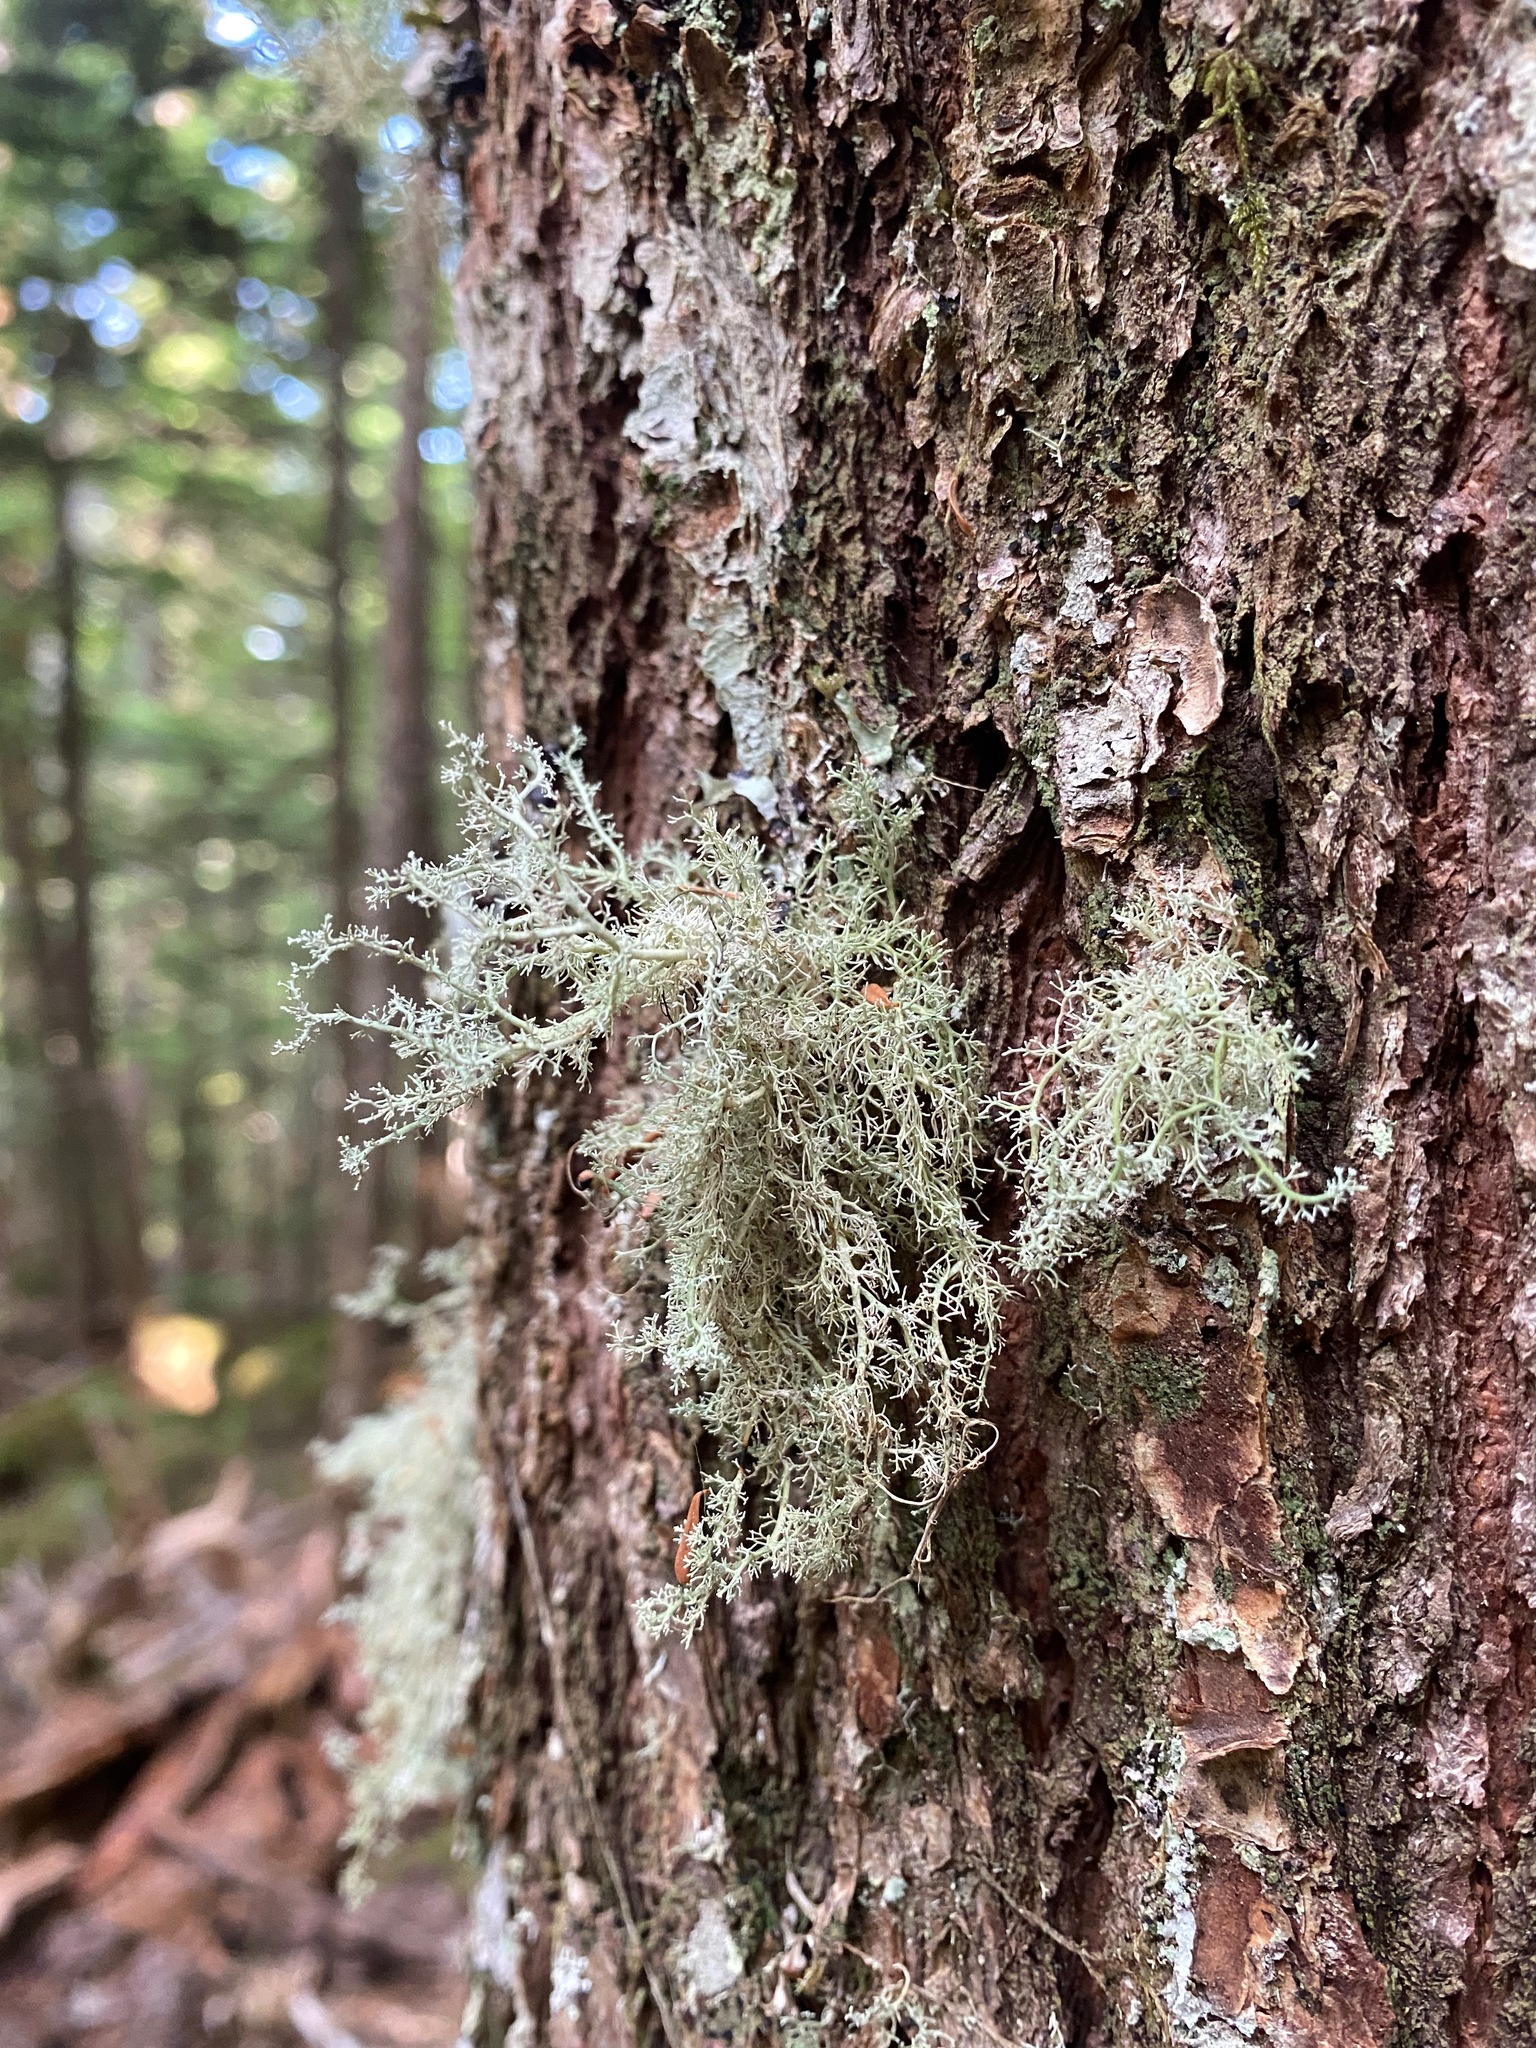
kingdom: Fungi
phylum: Ascomycota
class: Lecanoromycetes
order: Lecanorales
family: Sphaerophoraceae
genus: Sphaerophorus
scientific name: Sphaerophorus globosus
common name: Globe ball lichen
